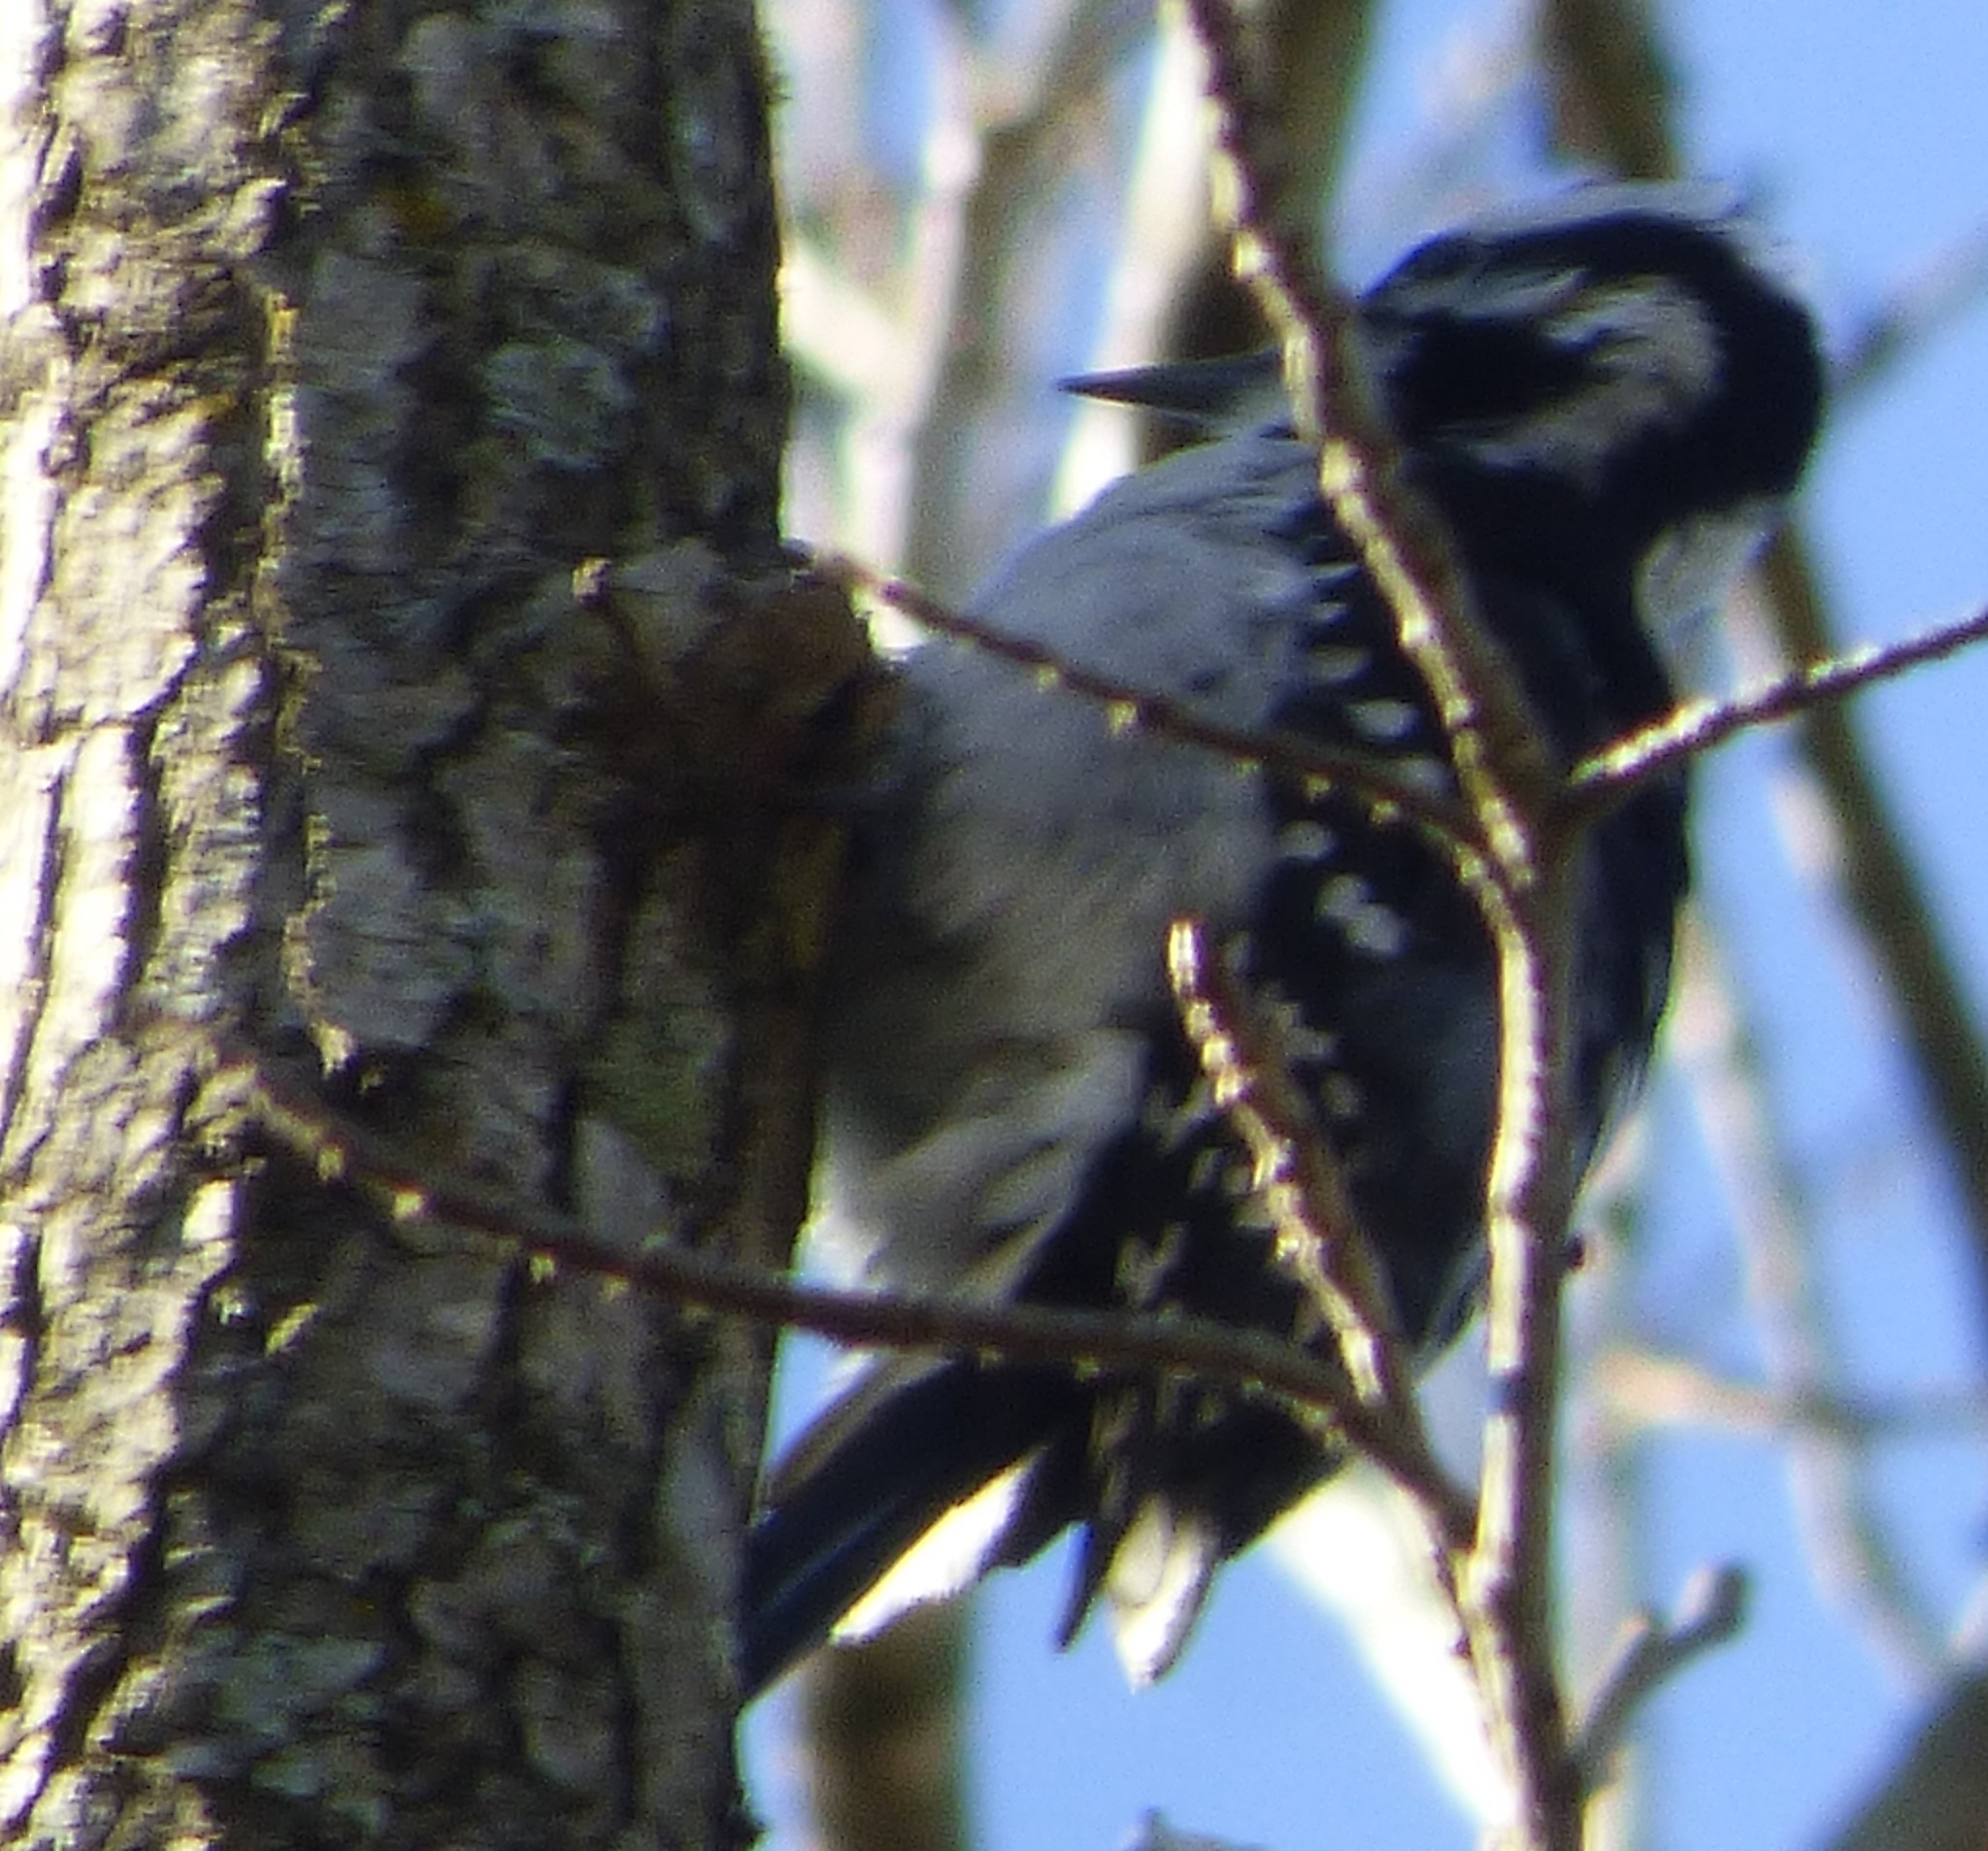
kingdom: Animalia
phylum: Chordata
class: Aves
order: Piciformes
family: Picidae
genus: Leuconotopicus
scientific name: Leuconotopicus villosus
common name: Hairy woodpecker
